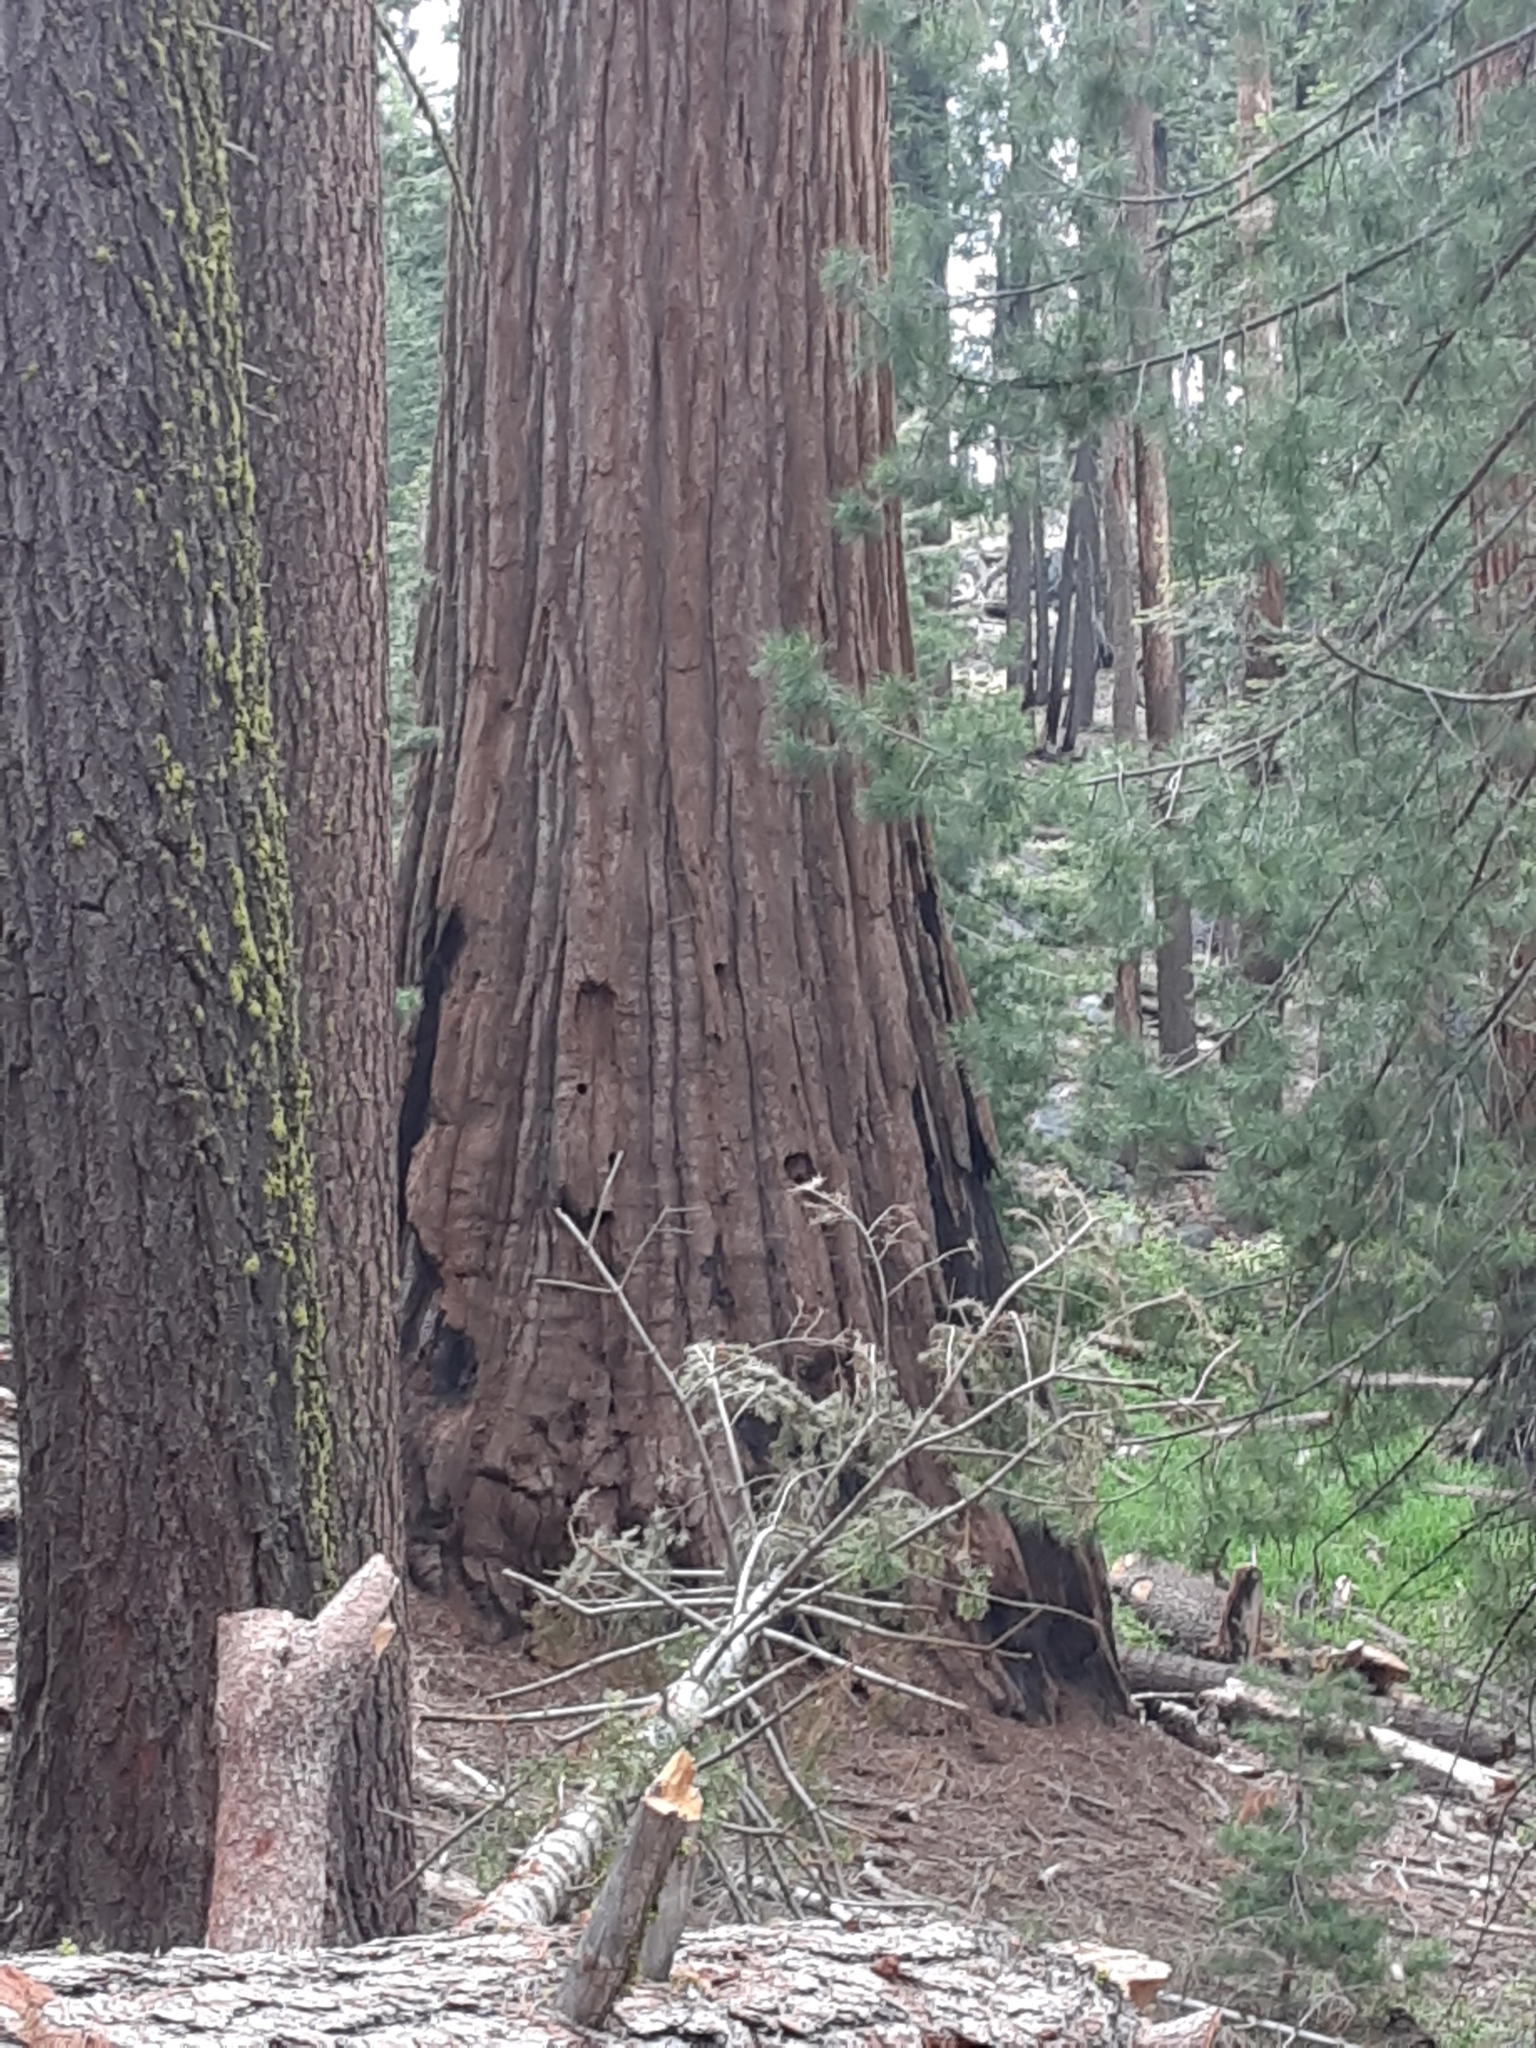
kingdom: Plantae
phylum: Tracheophyta
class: Pinopsida
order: Pinales
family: Cupressaceae
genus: Sequoiadendron
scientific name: Sequoiadendron giganteum
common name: Wellingtonia
